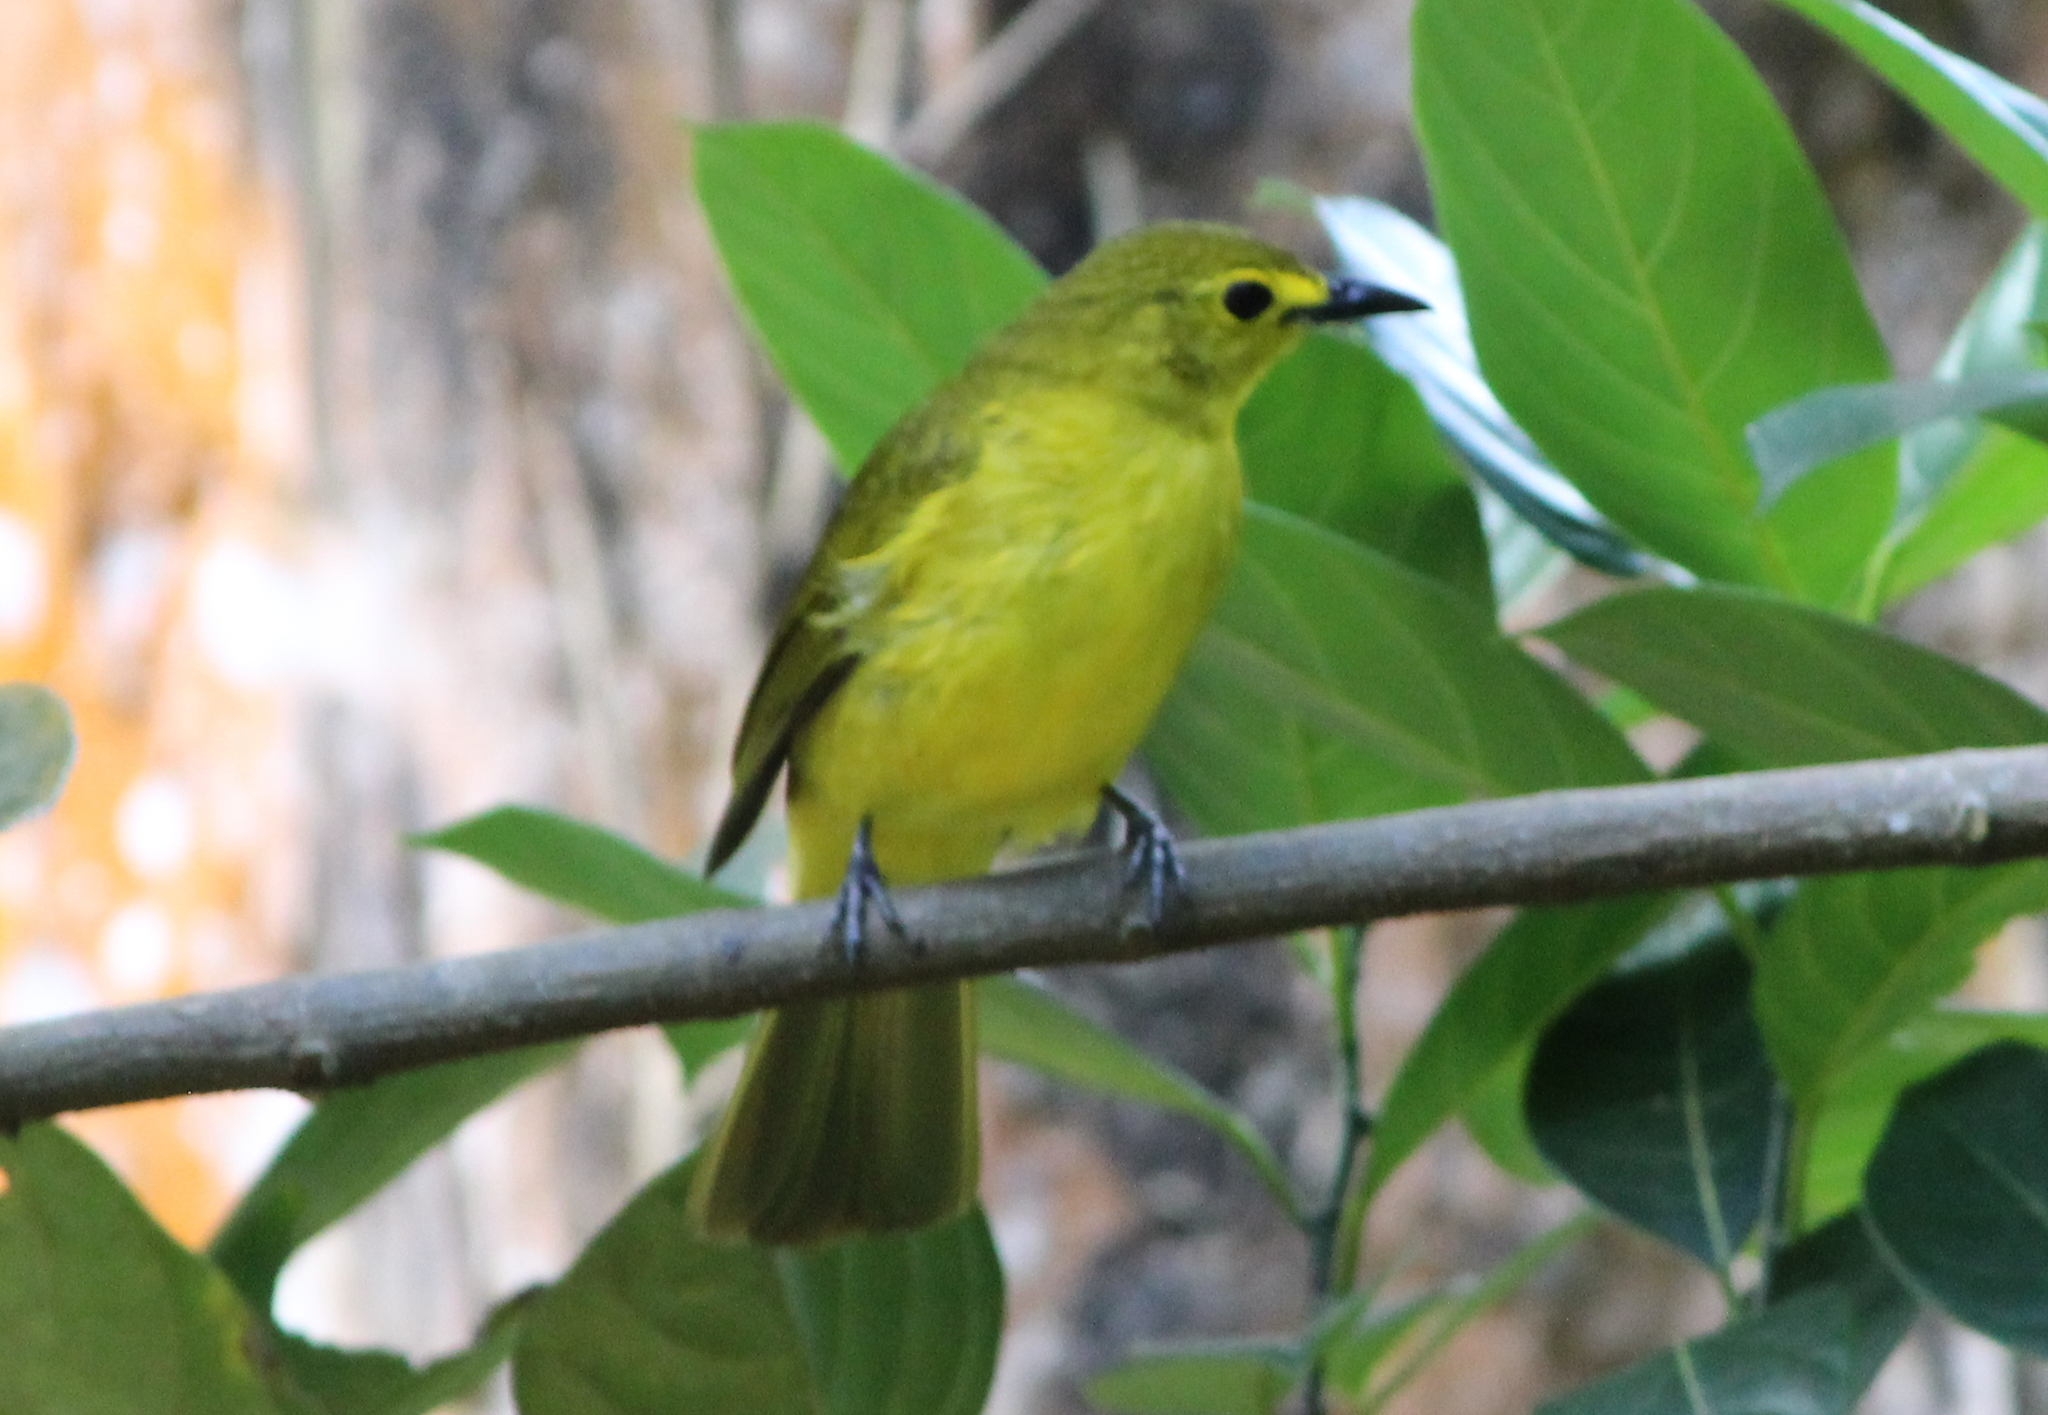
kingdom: Animalia
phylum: Chordata
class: Aves
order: Passeriformes
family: Pycnonotidae
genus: Acritillas
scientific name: Acritillas indica
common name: Yellow-browed bulbul
